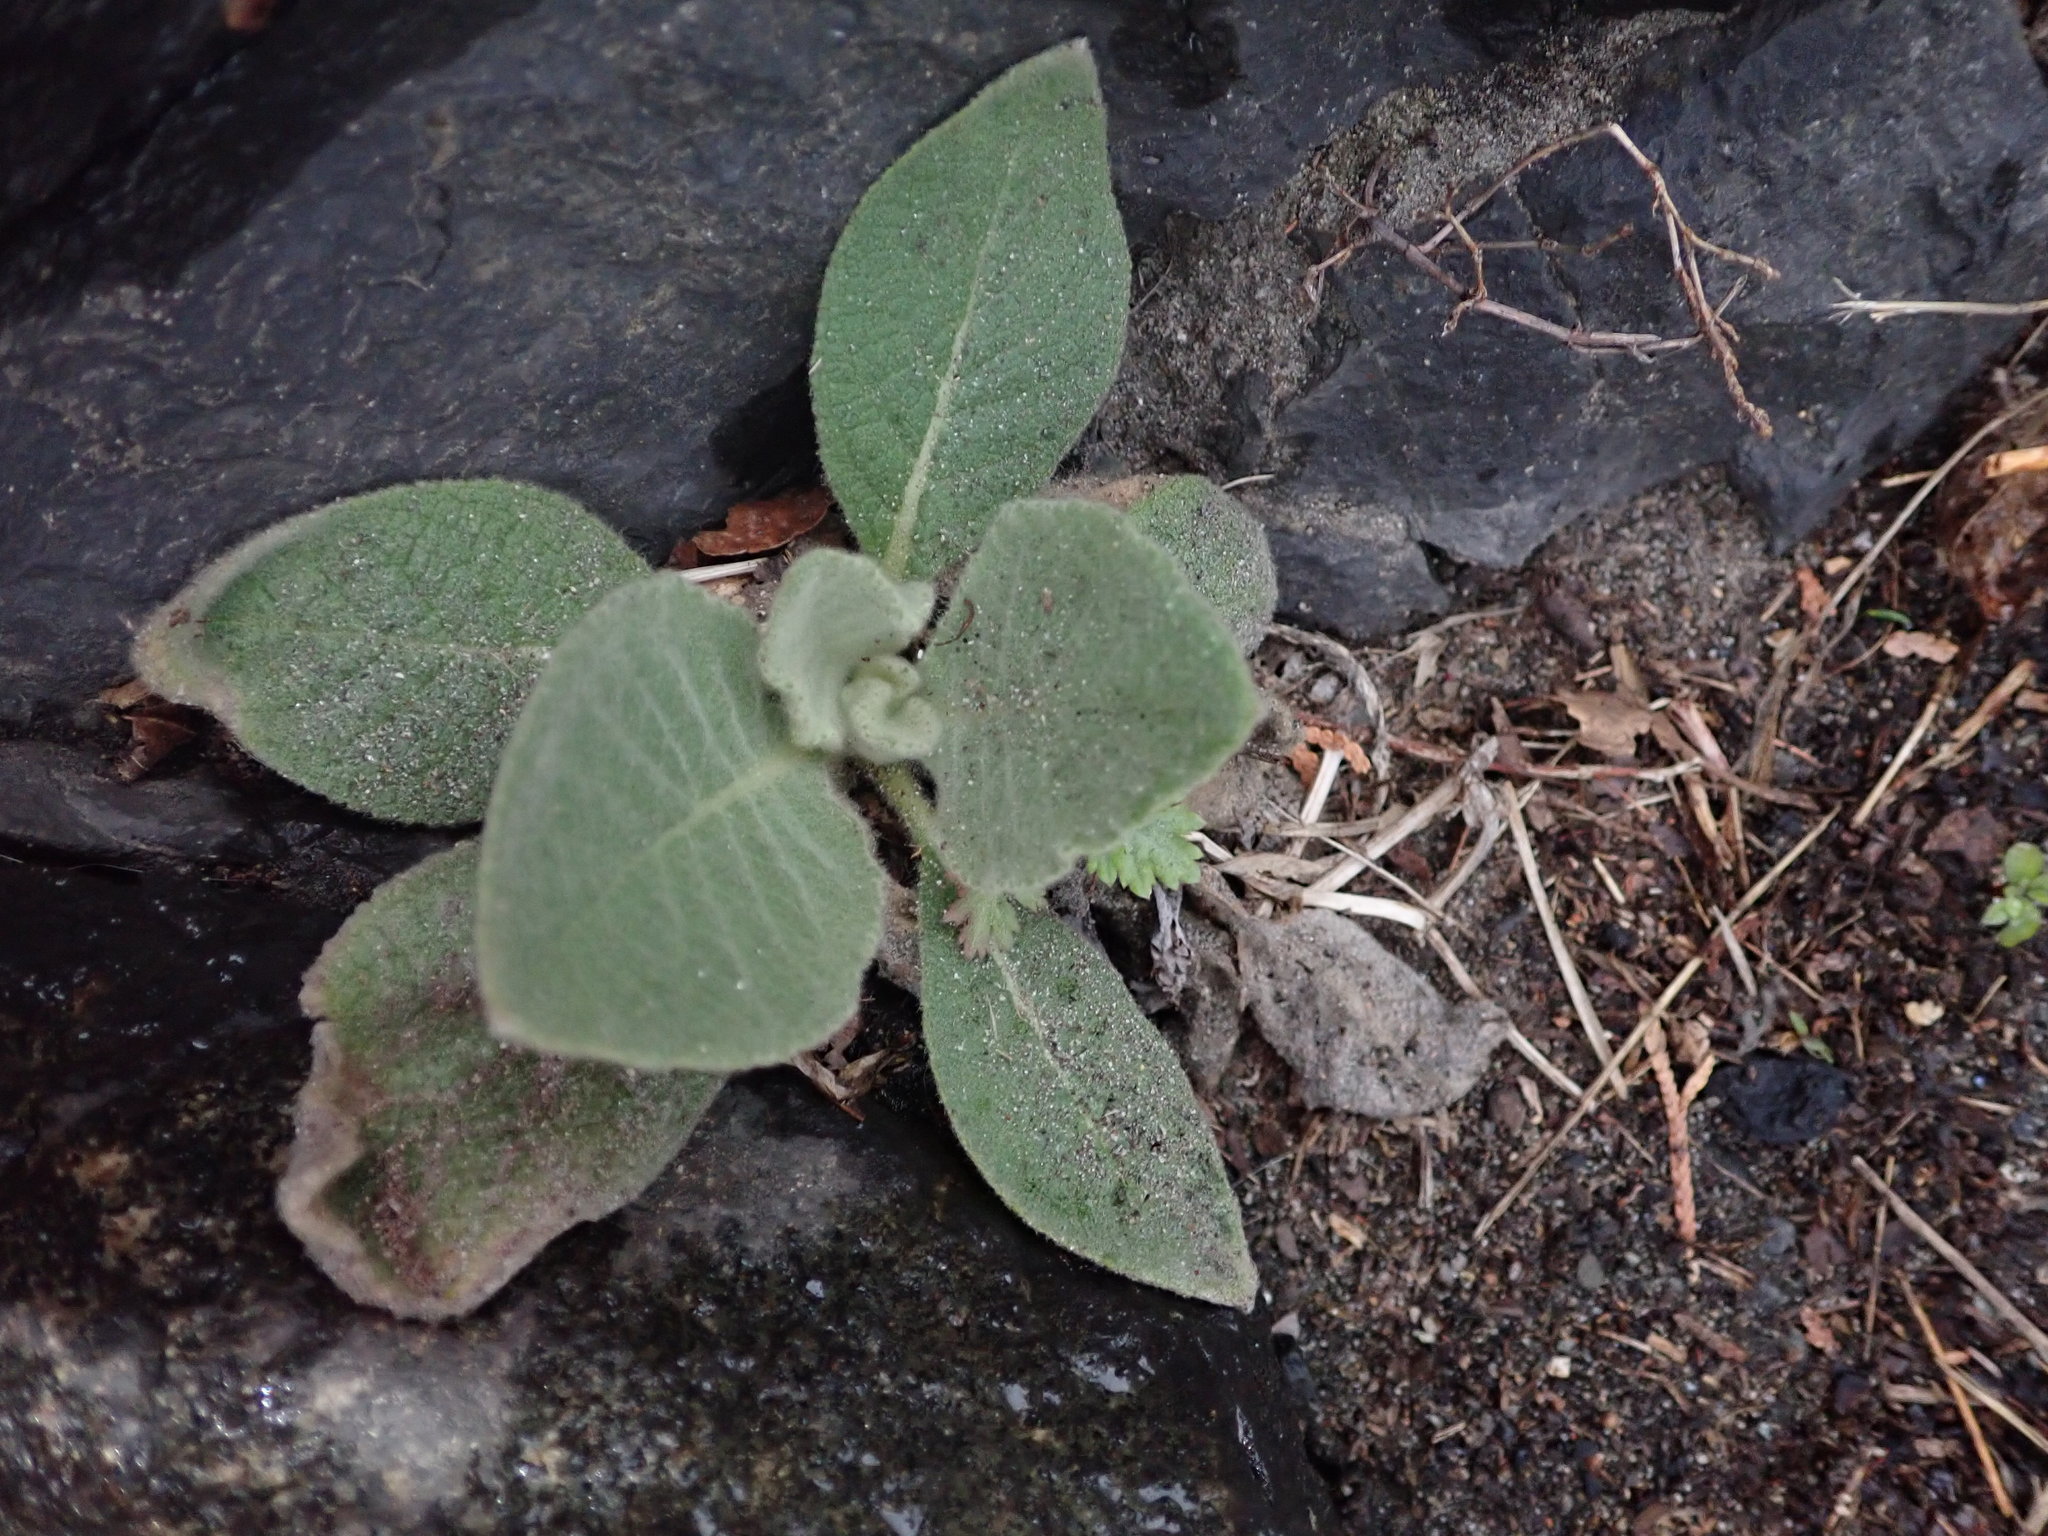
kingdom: Plantae
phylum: Tracheophyta
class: Magnoliopsida
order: Lamiales
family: Scrophulariaceae
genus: Verbascum
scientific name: Verbascum thapsus
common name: Common mullein
